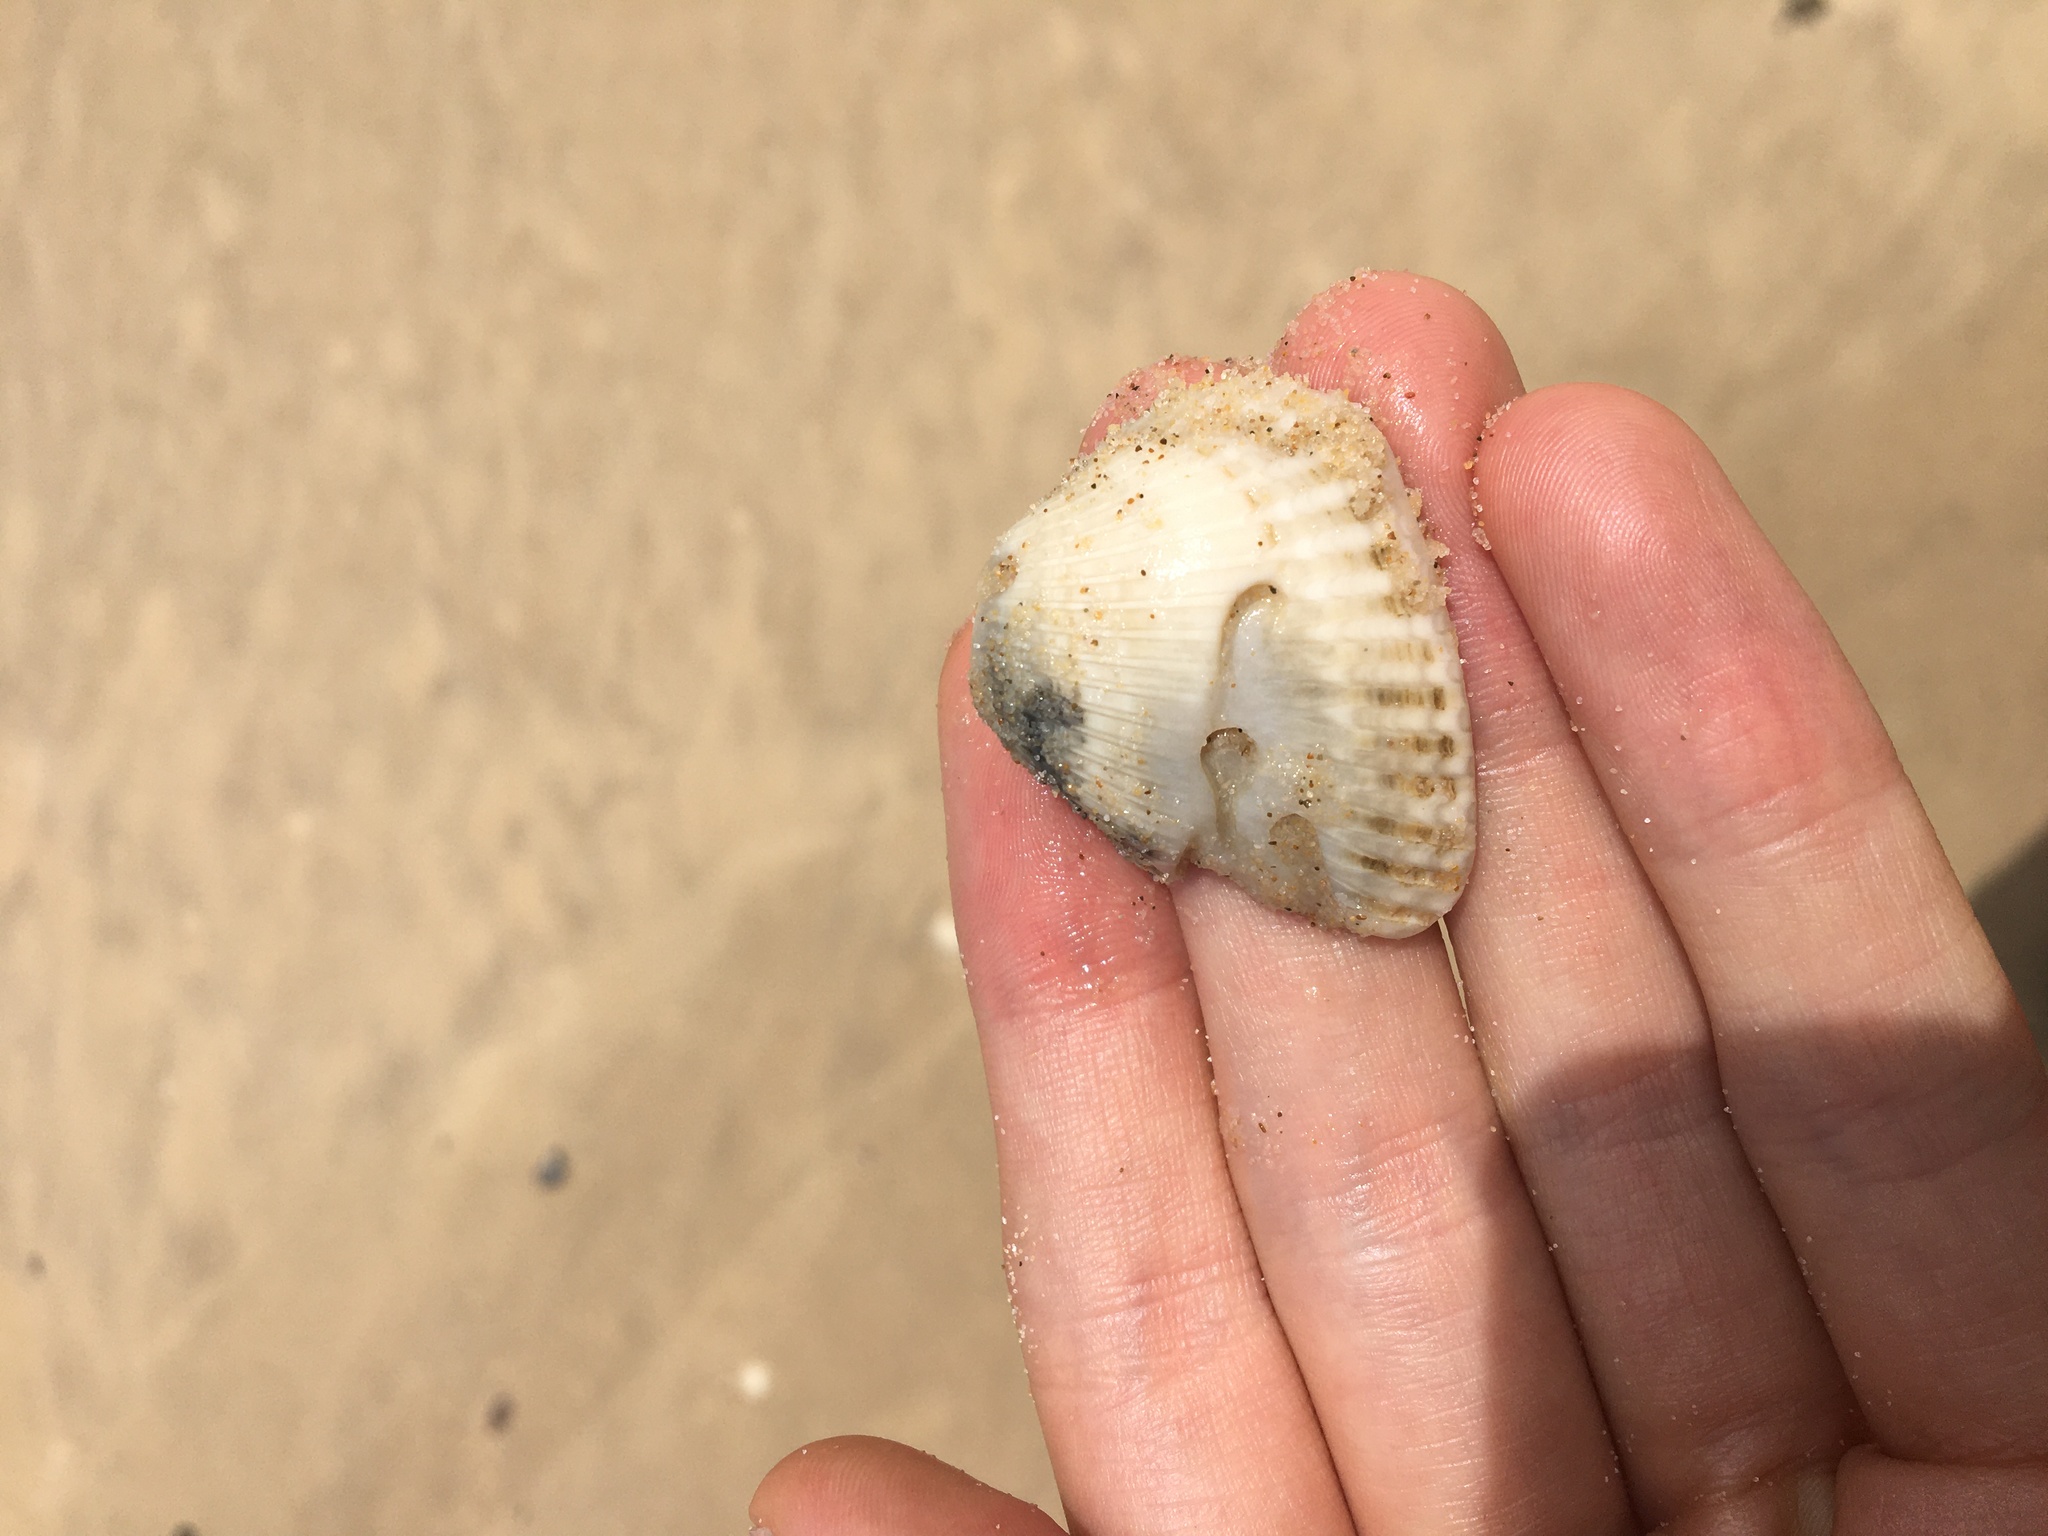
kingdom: Animalia
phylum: Mollusca
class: Bivalvia
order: Arcida
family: Arcidae
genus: Anadara
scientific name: Anadara trapezia
